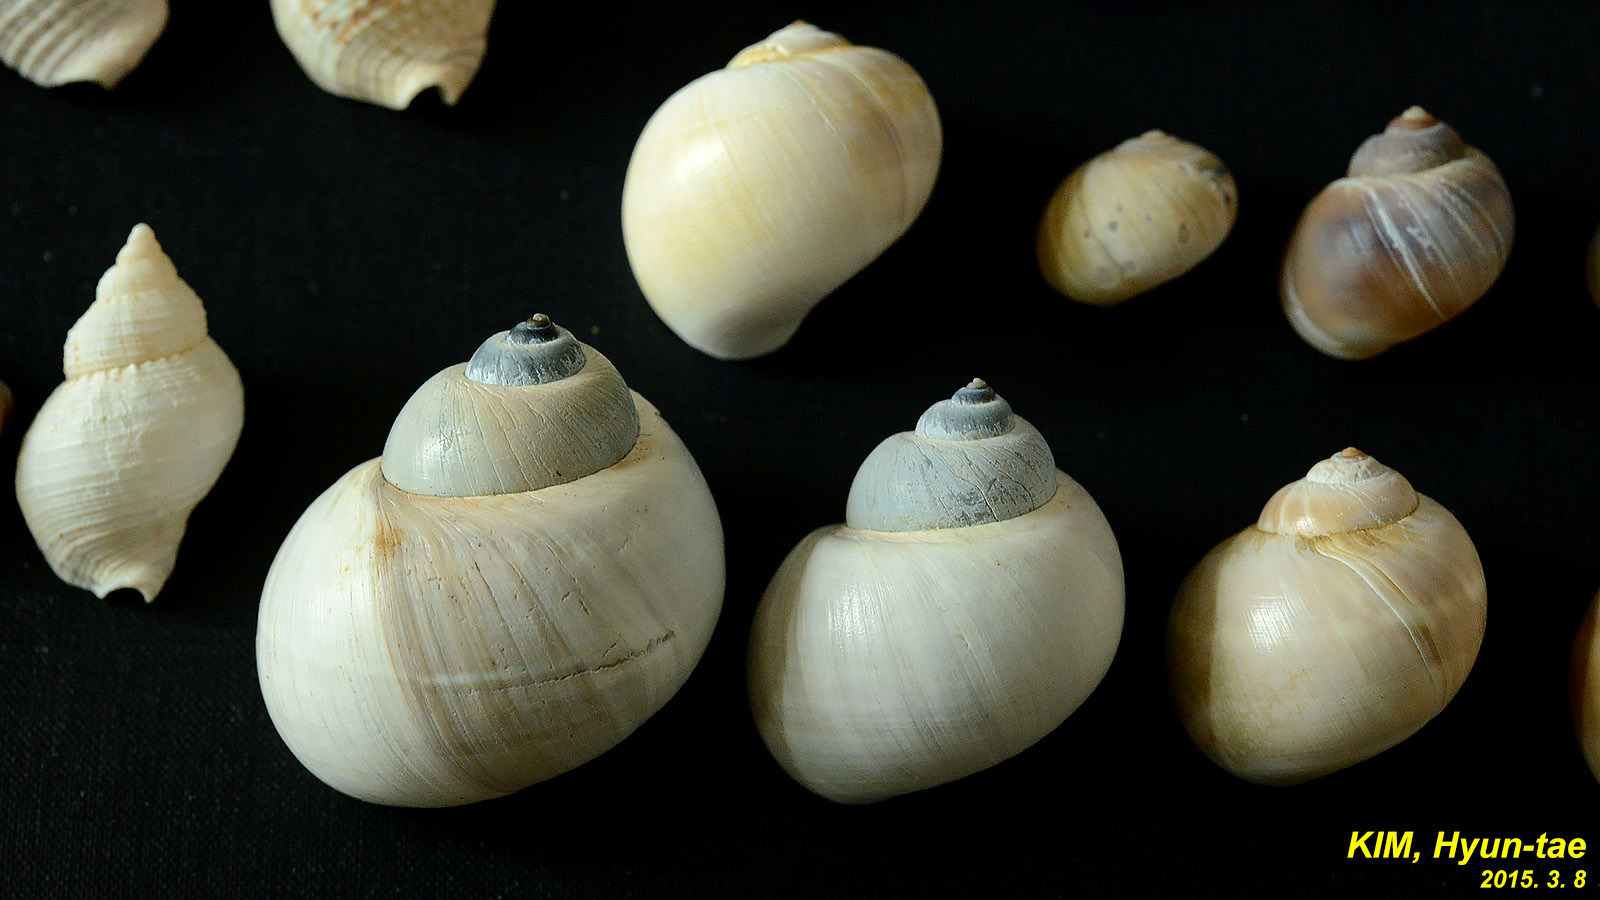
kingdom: Animalia
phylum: Mollusca
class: Gastropoda
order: Littorinimorpha
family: Naticidae
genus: Laguncula
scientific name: Laguncula pulchella
